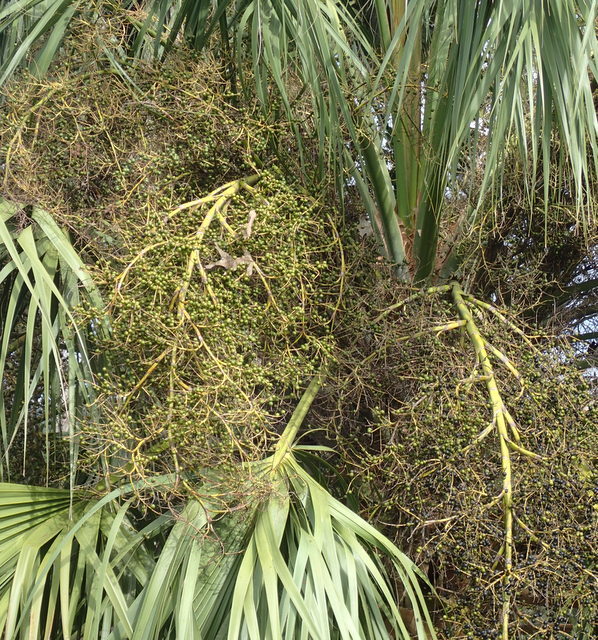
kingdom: Plantae
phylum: Tracheophyta
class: Liliopsida
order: Arecales
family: Arecaceae
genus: Sabal
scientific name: Sabal palmetto
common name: Blue palmetto
